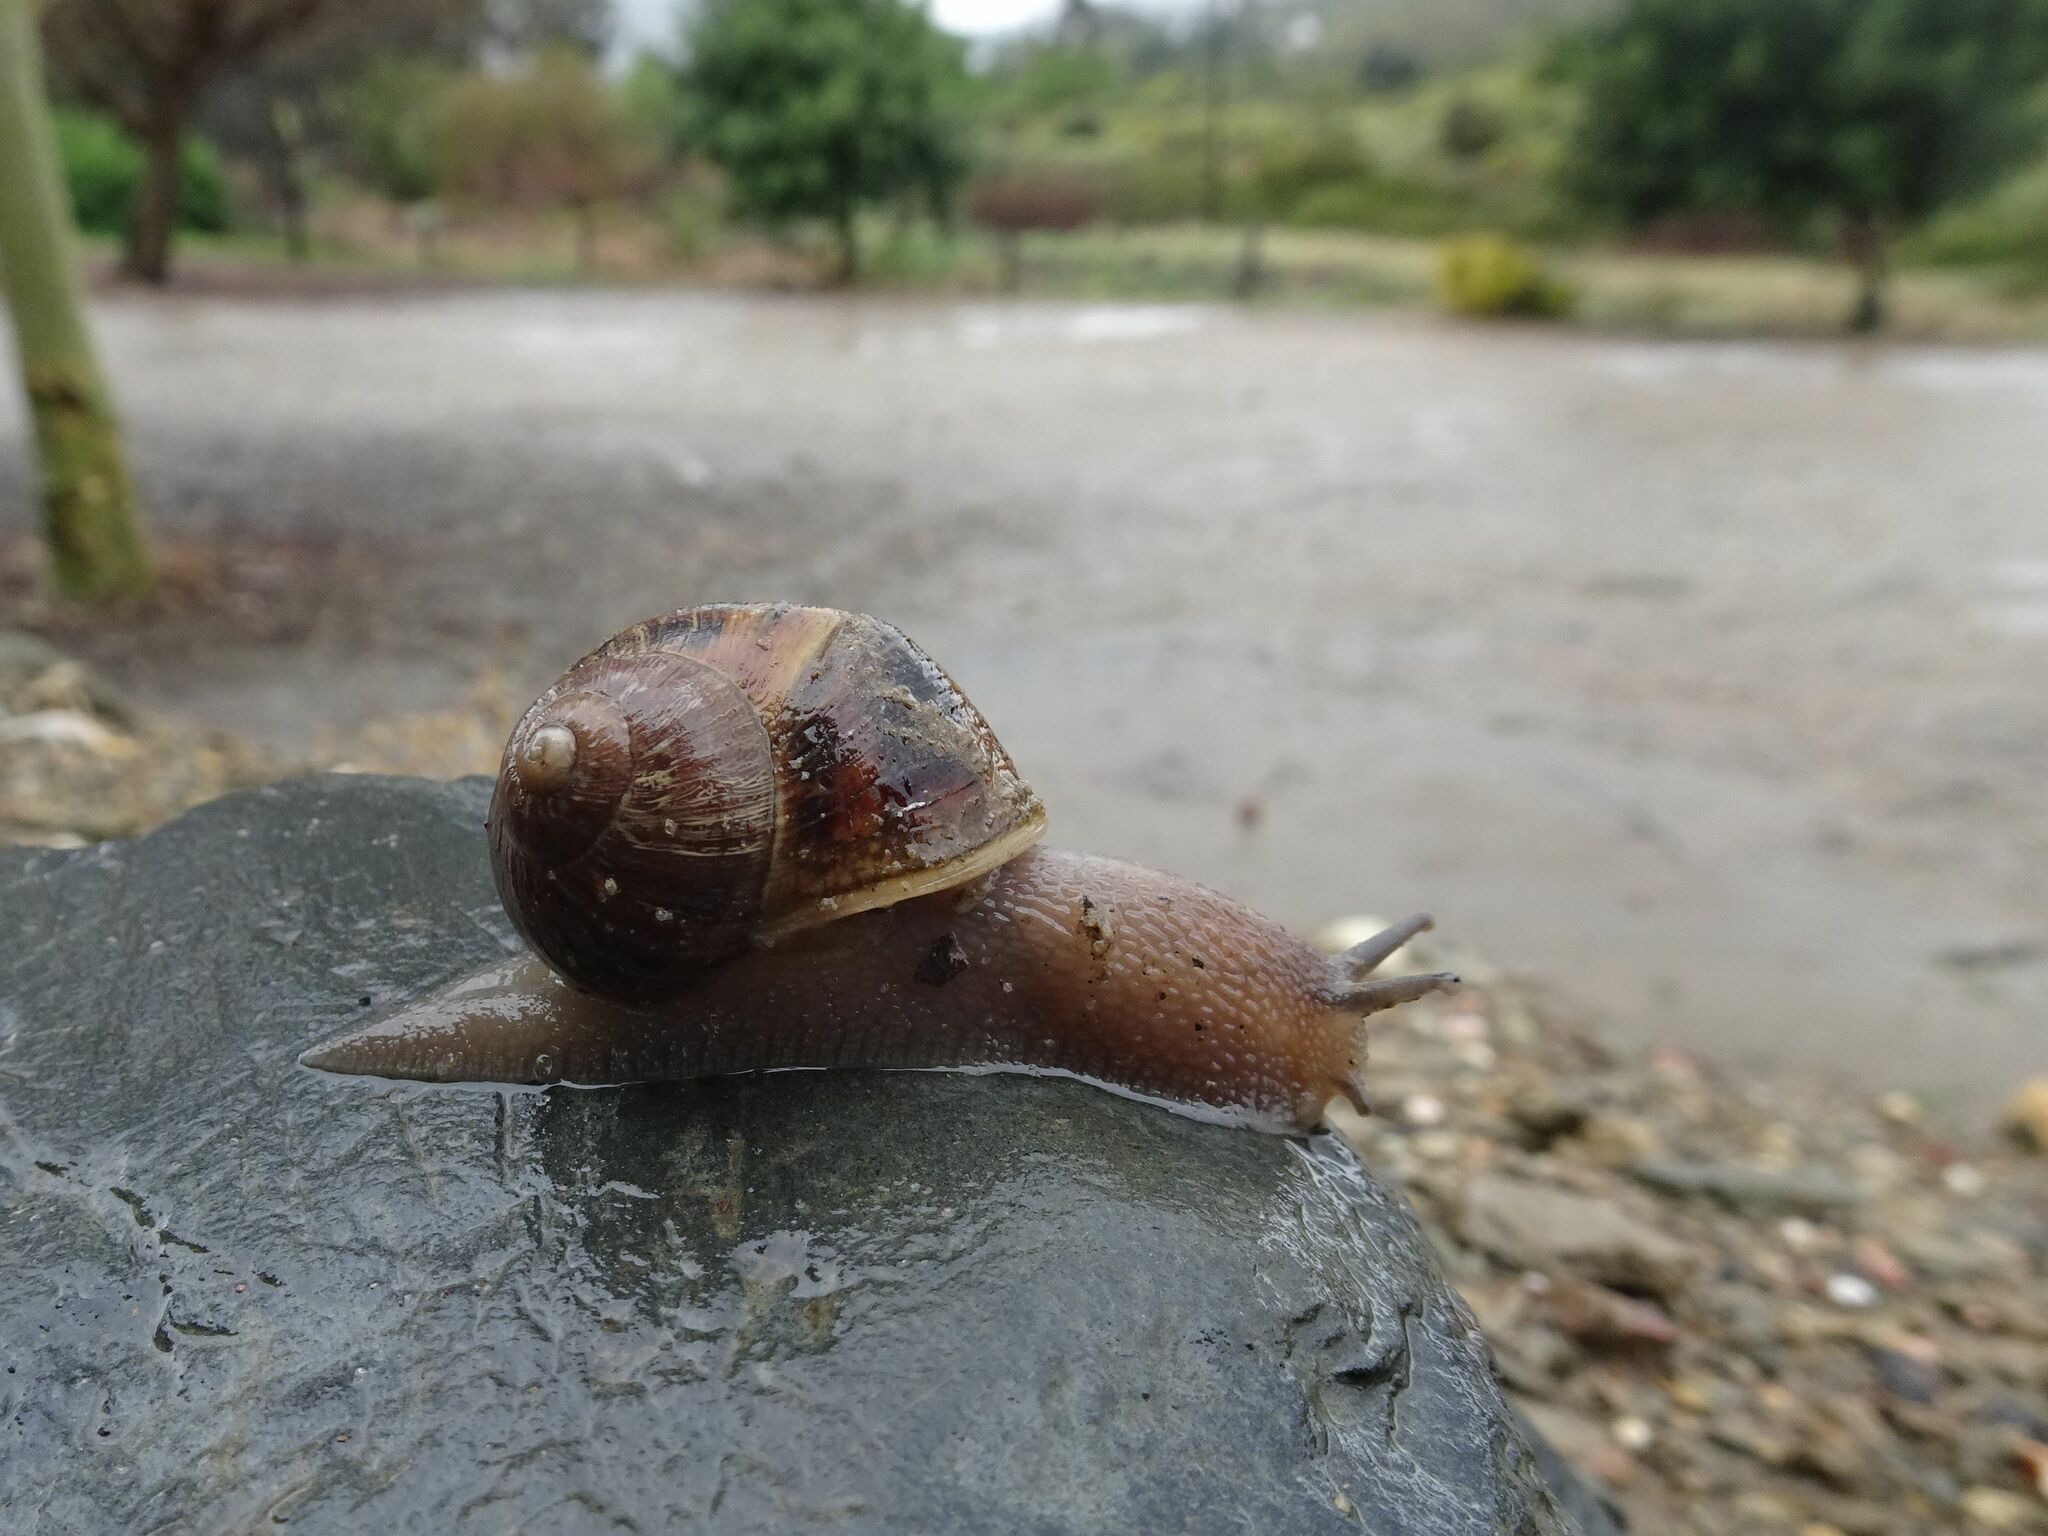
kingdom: Animalia
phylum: Mollusca
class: Gastropoda
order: Stylommatophora
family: Helicidae
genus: Cornu
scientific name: Cornu aspersum
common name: Brown garden snail
